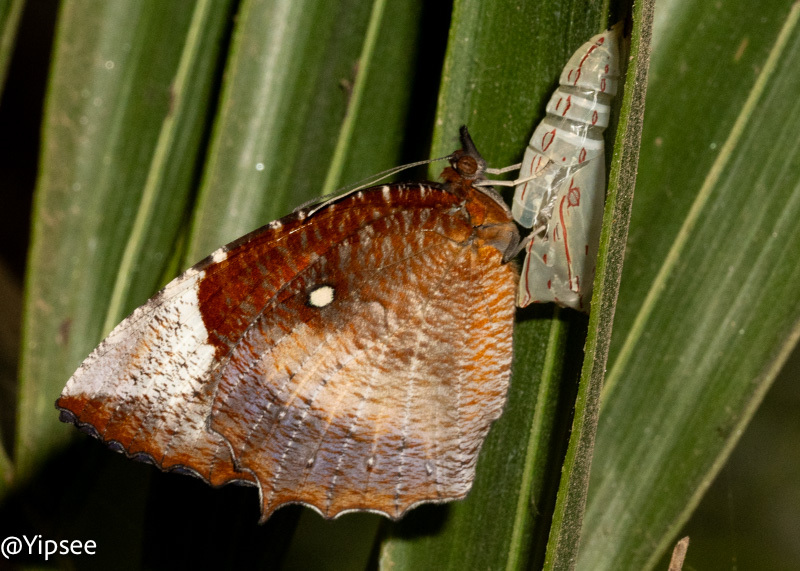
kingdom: Animalia
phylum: Arthropoda
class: Insecta
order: Lepidoptera
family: Nymphalidae
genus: Elymnias
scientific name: Elymnias hypermnestra
